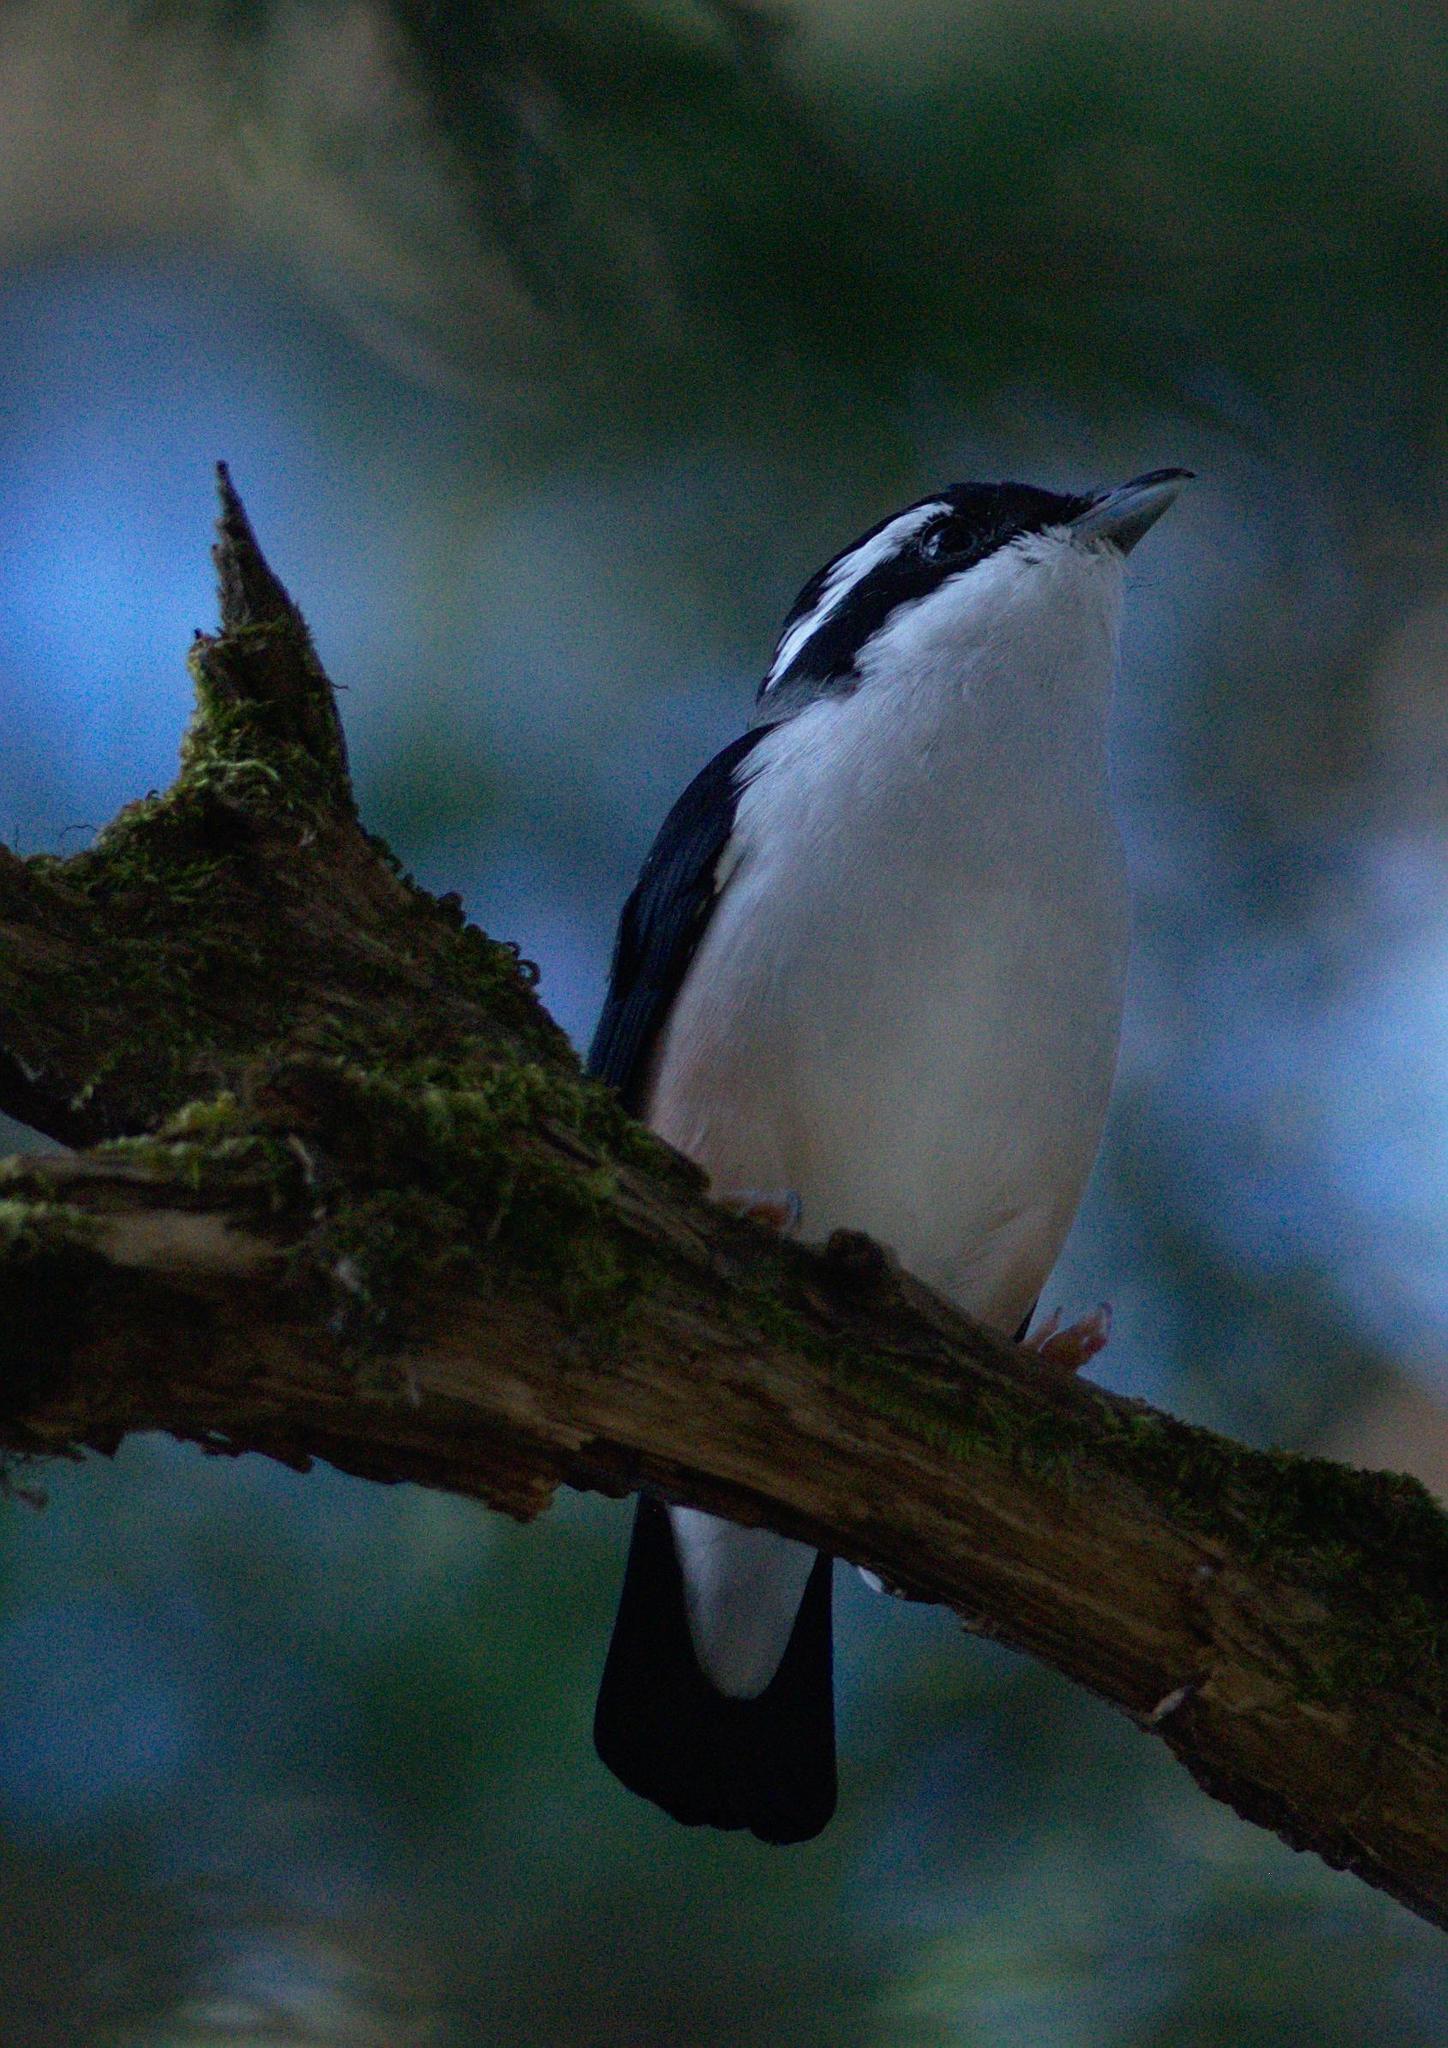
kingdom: Animalia
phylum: Chordata
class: Aves
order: Passeriformes
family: Vireonidae
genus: Pteruthius
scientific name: Pteruthius aeralatus
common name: Blyth's shrike-babbler
